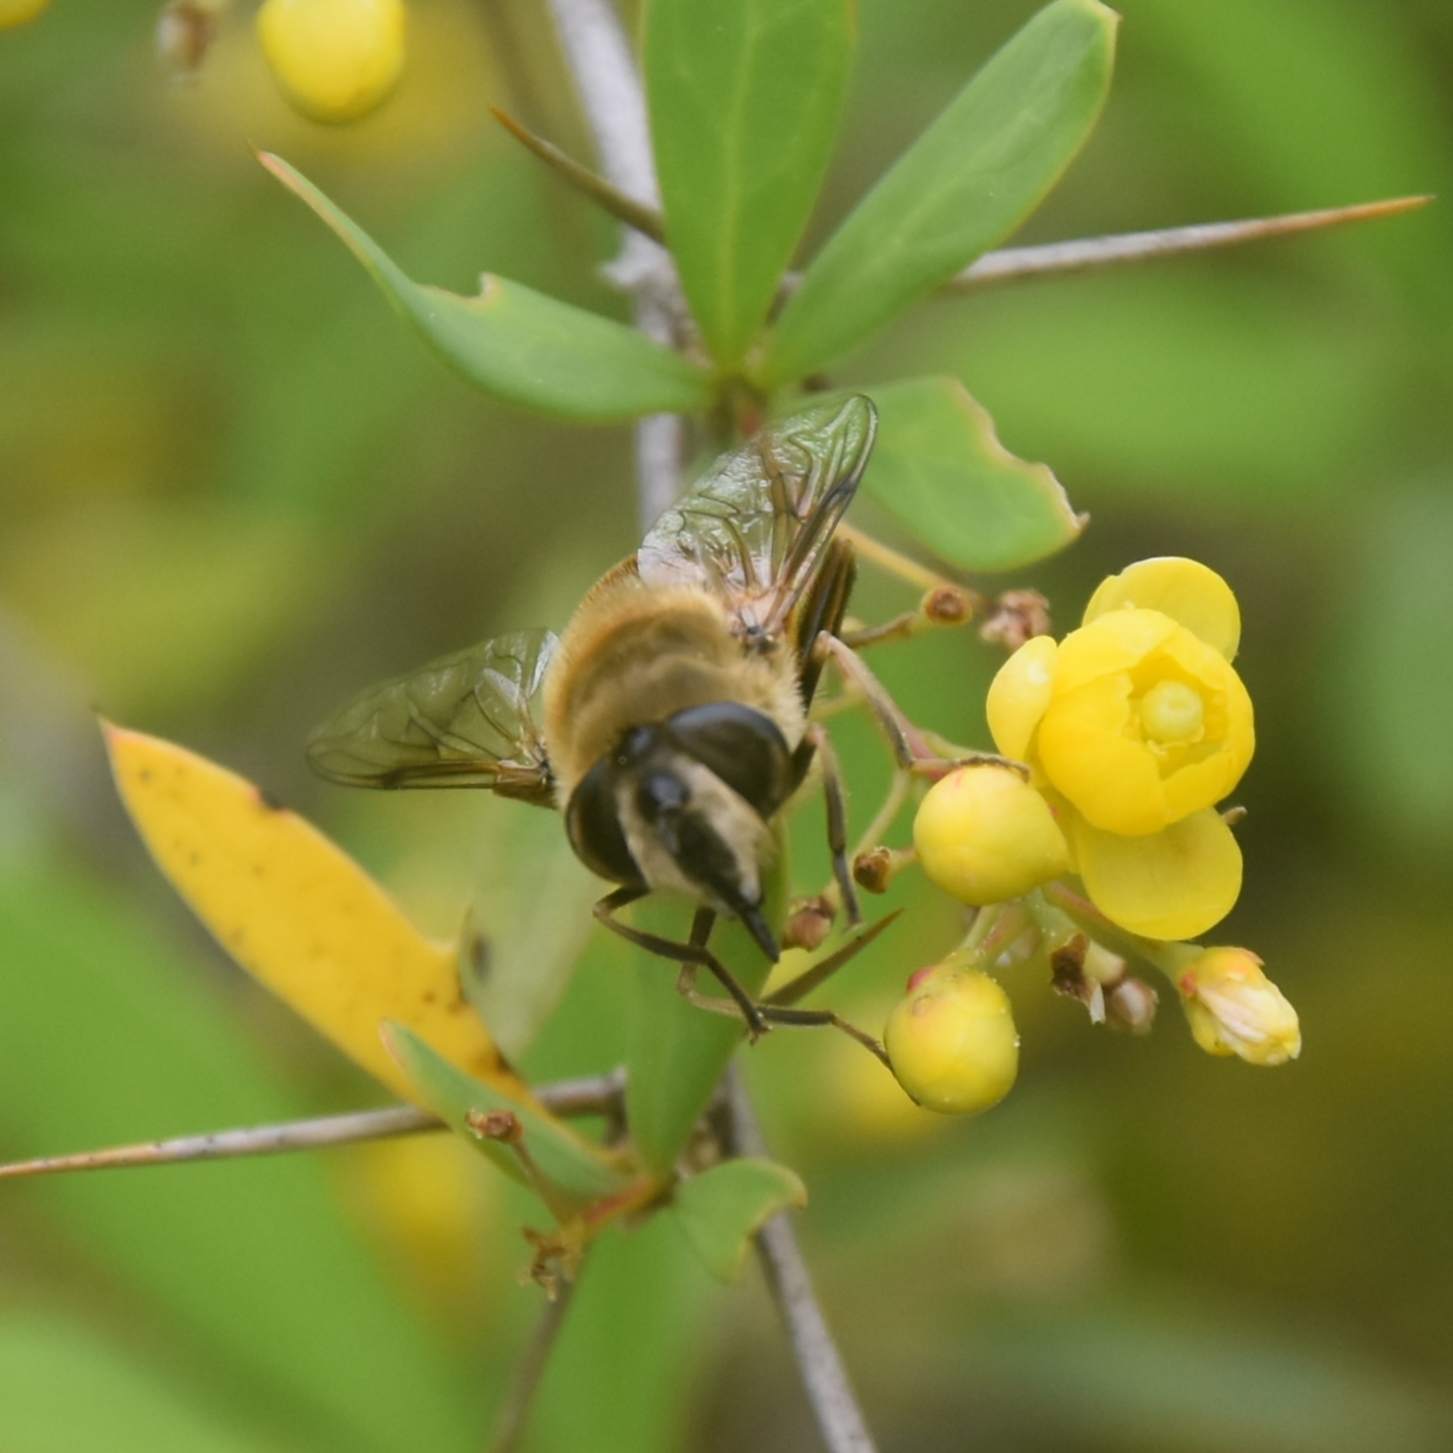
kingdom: Animalia
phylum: Arthropoda
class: Insecta
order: Diptera
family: Syrphidae
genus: Eristalis
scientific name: Eristalis tenax
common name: Drone fly
